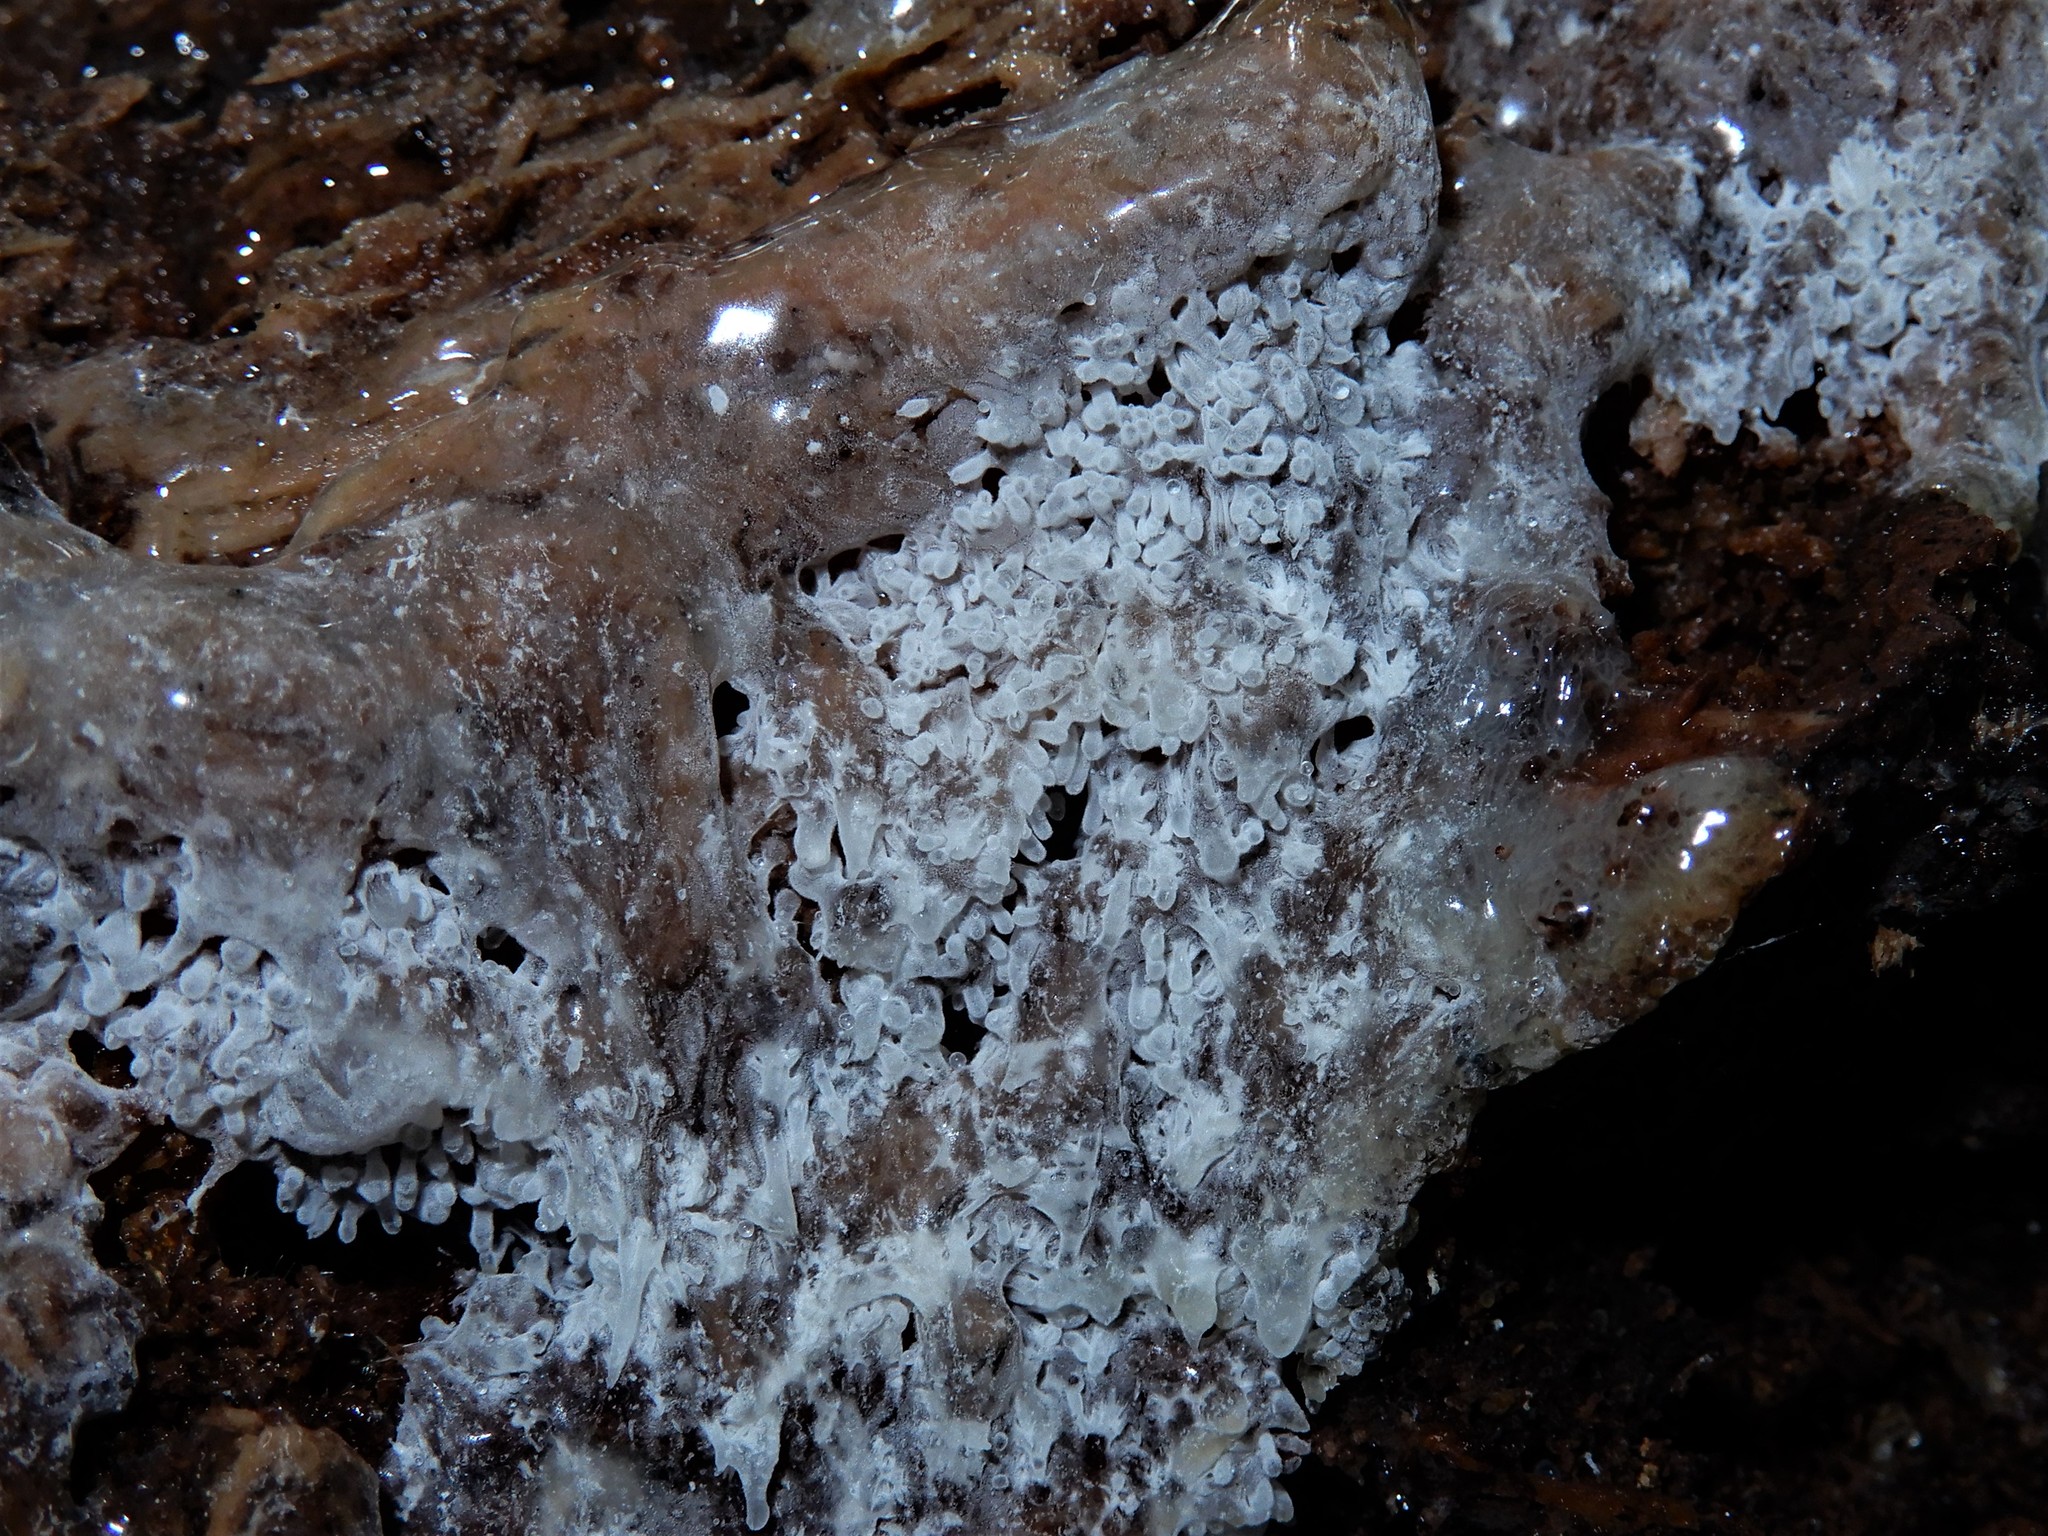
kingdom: Protozoa
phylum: Mycetozoa
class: Protosteliomycetes
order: Ceratiomyxales
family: Ceratiomyxaceae
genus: Ceratiomyxa
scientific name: Ceratiomyxa fruticulosa
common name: Honeycomb coral slime mold
